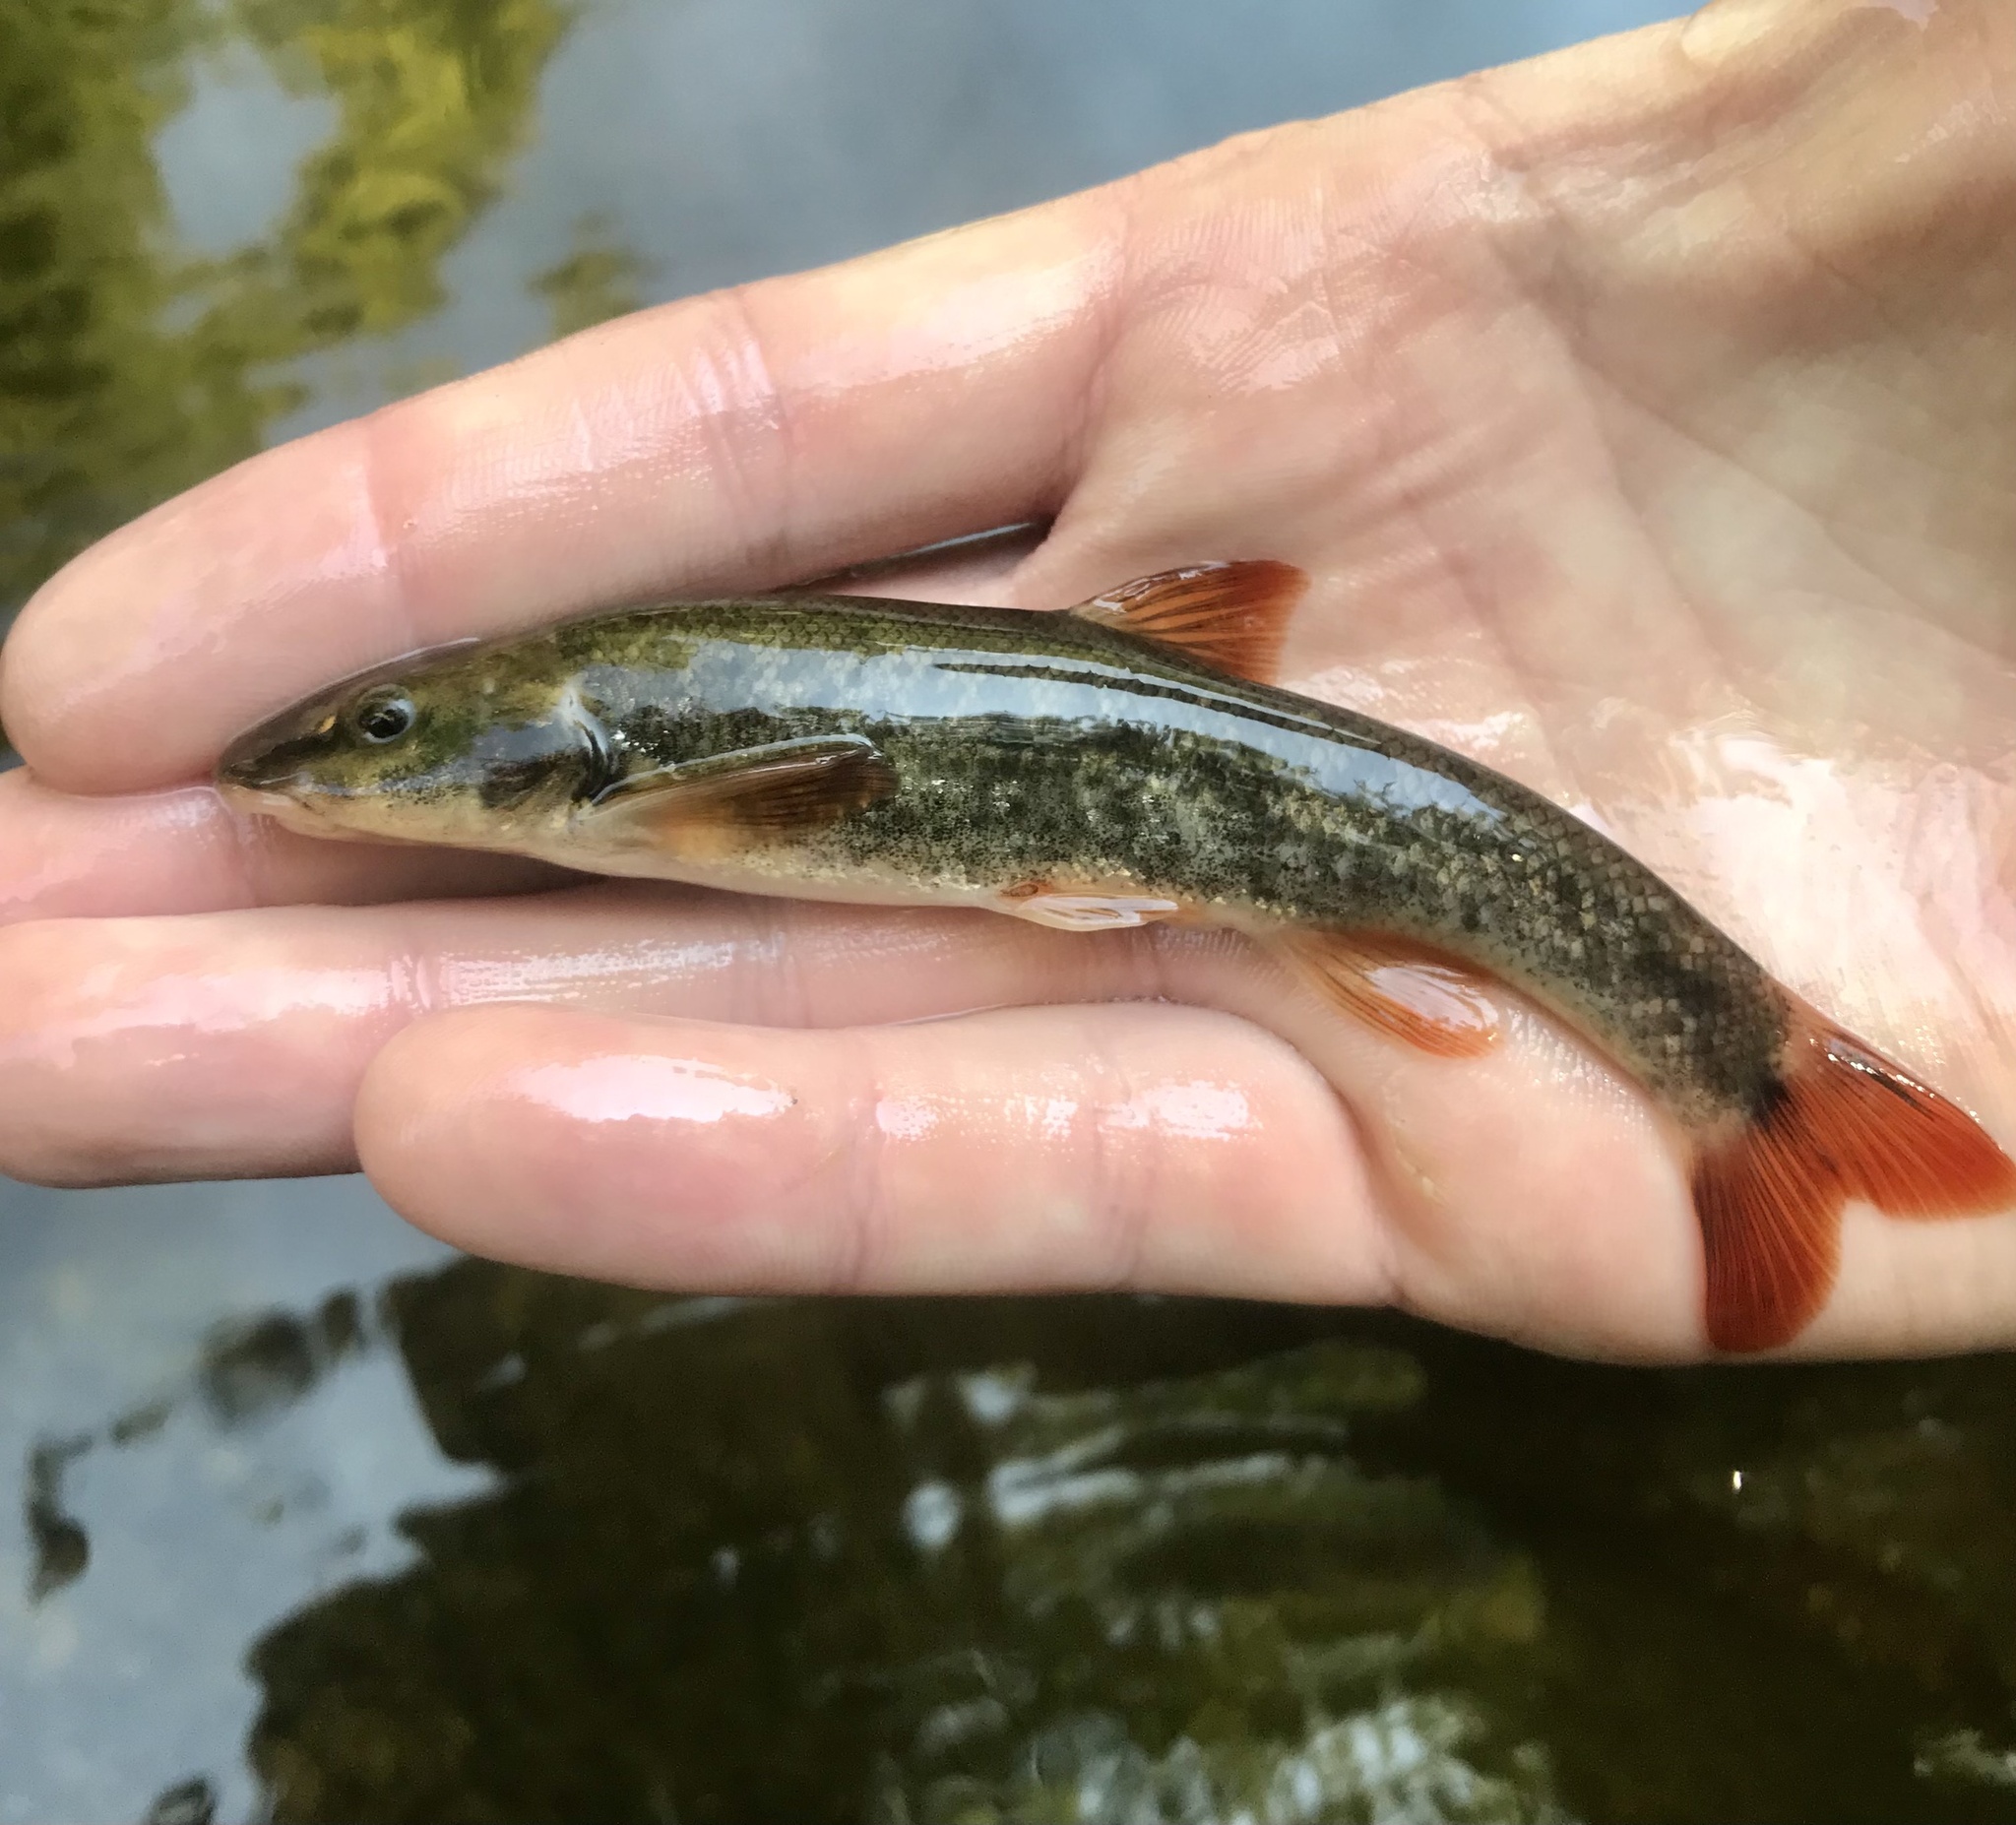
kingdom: Animalia
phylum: Chordata
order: Cypriniformes
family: Cyprinidae
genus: Rhinichthys
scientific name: Rhinichthys cataractae
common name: Longnose dace
